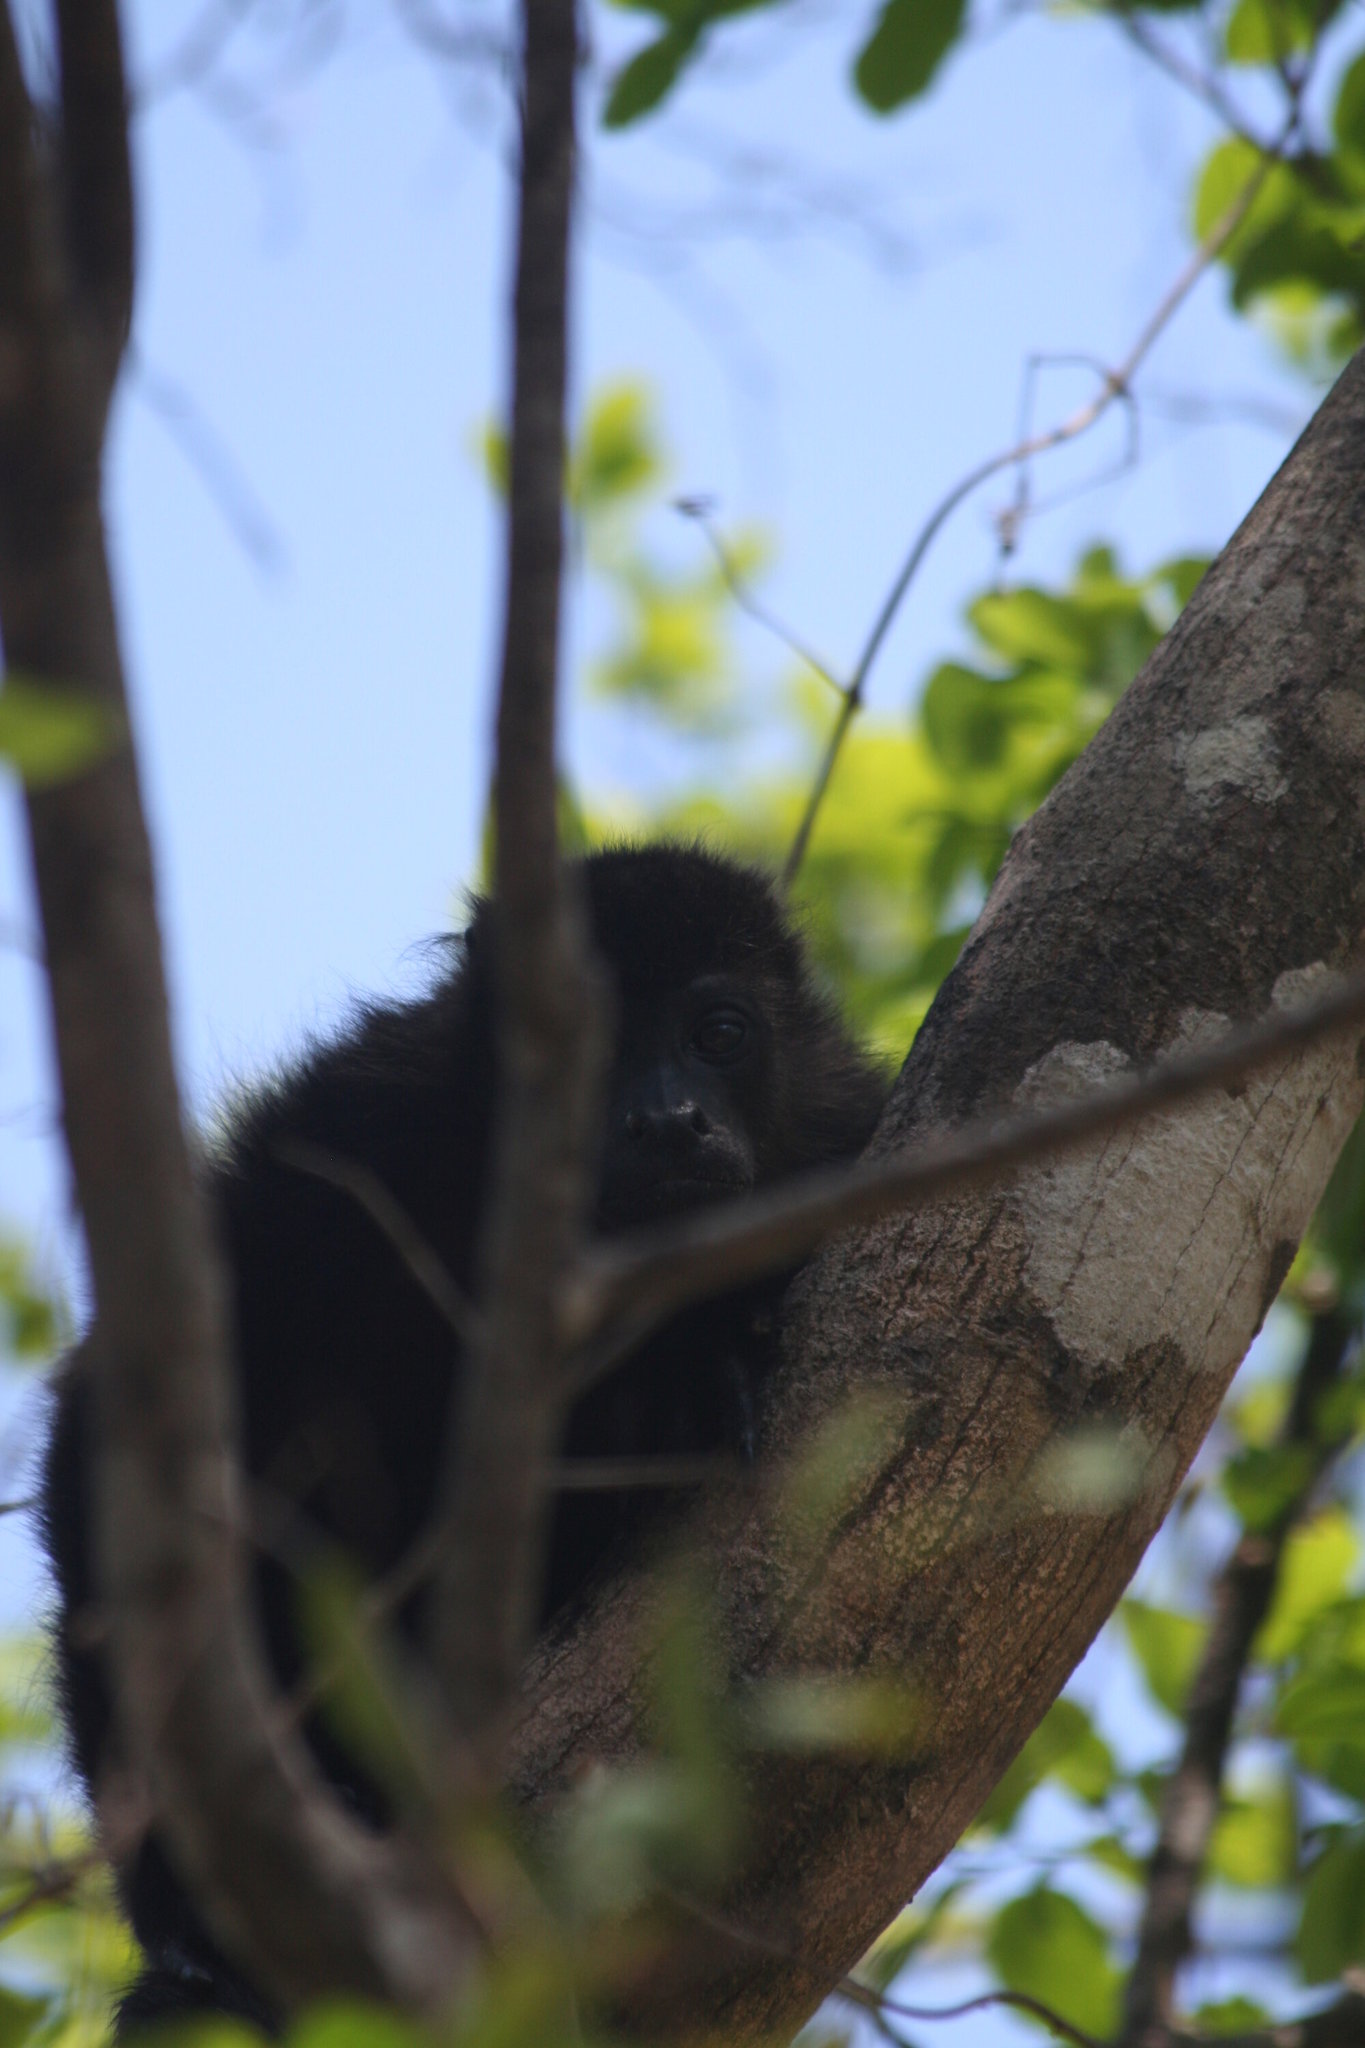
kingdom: Animalia
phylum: Chordata
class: Mammalia
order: Primates
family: Atelidae
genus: Alouatta
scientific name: Alouatta palliata
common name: Mantled howler
